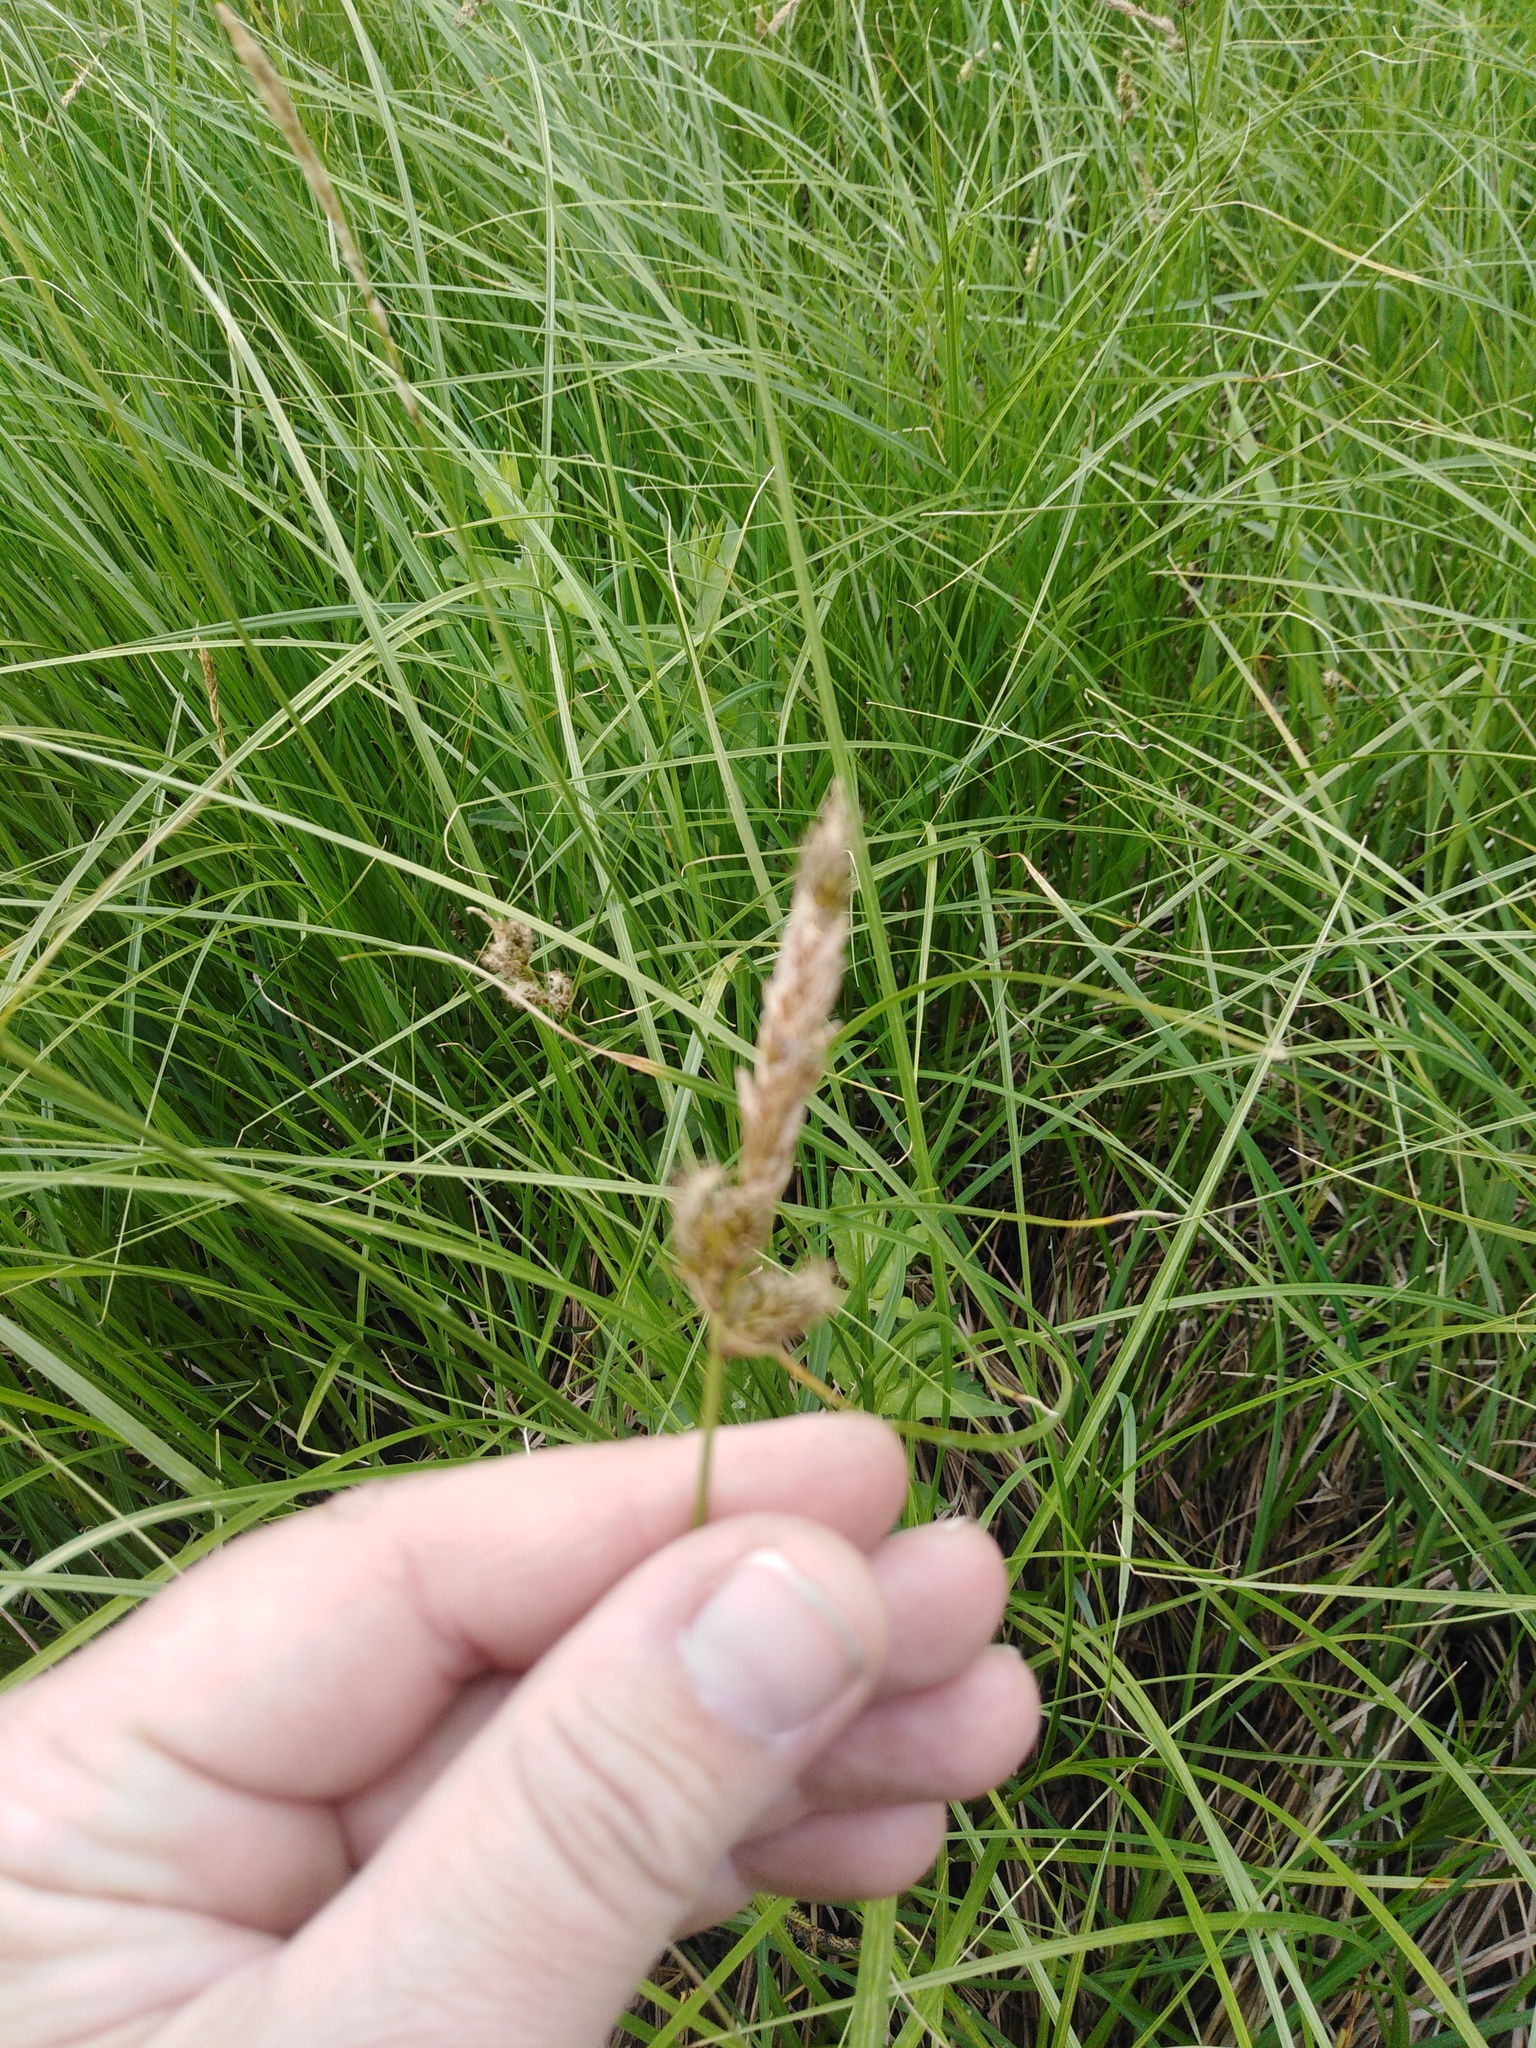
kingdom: Plantae
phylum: Tracheophyta
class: Liliopsida
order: Poales
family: Cyperaceae
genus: Carex
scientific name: Carex disticha
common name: Brown sedge
